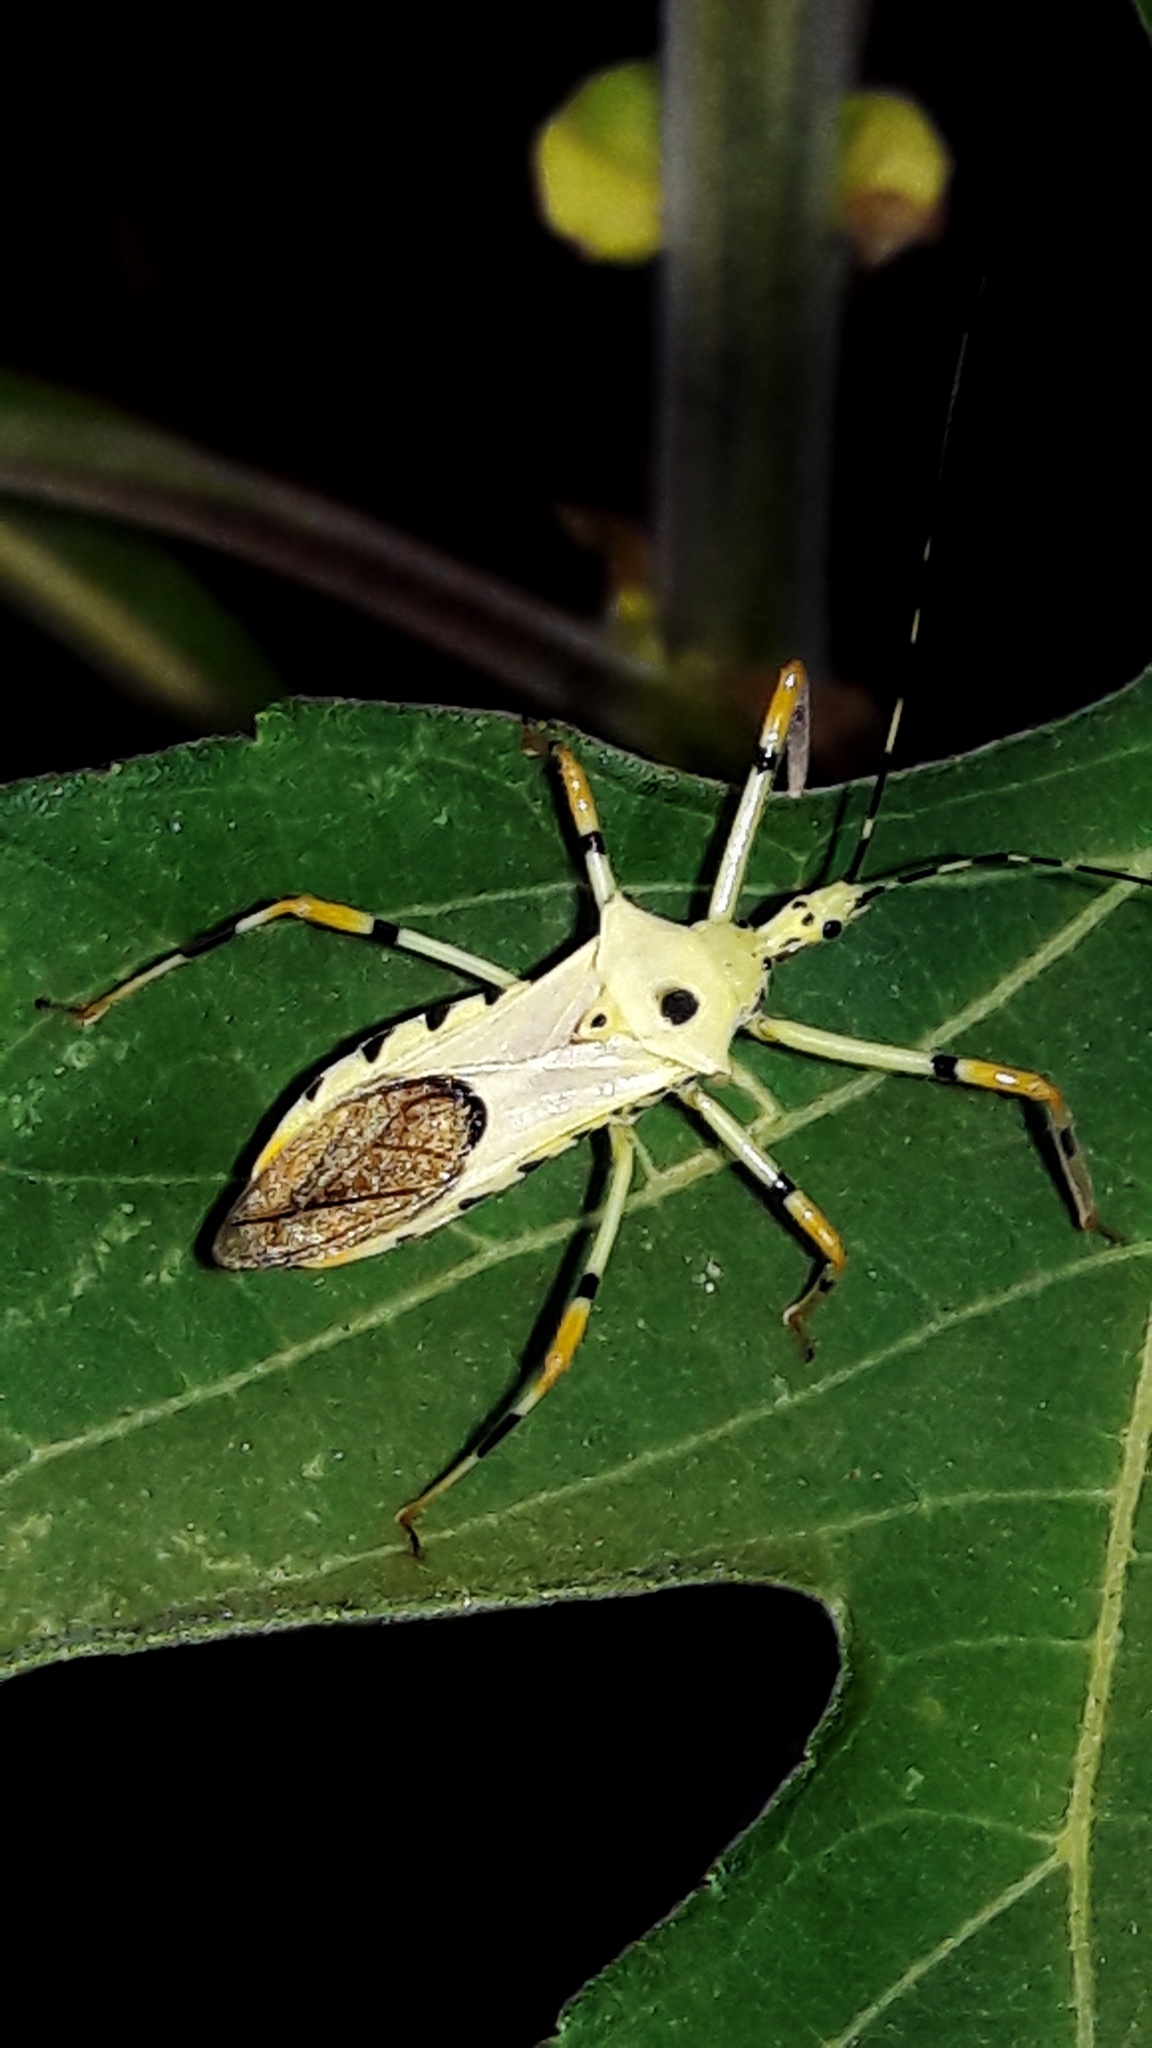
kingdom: Animalia
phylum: Arthropoda
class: Insecta
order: Hemiptera
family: Reduviidae
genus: Zelus
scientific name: Zelus armillatus
